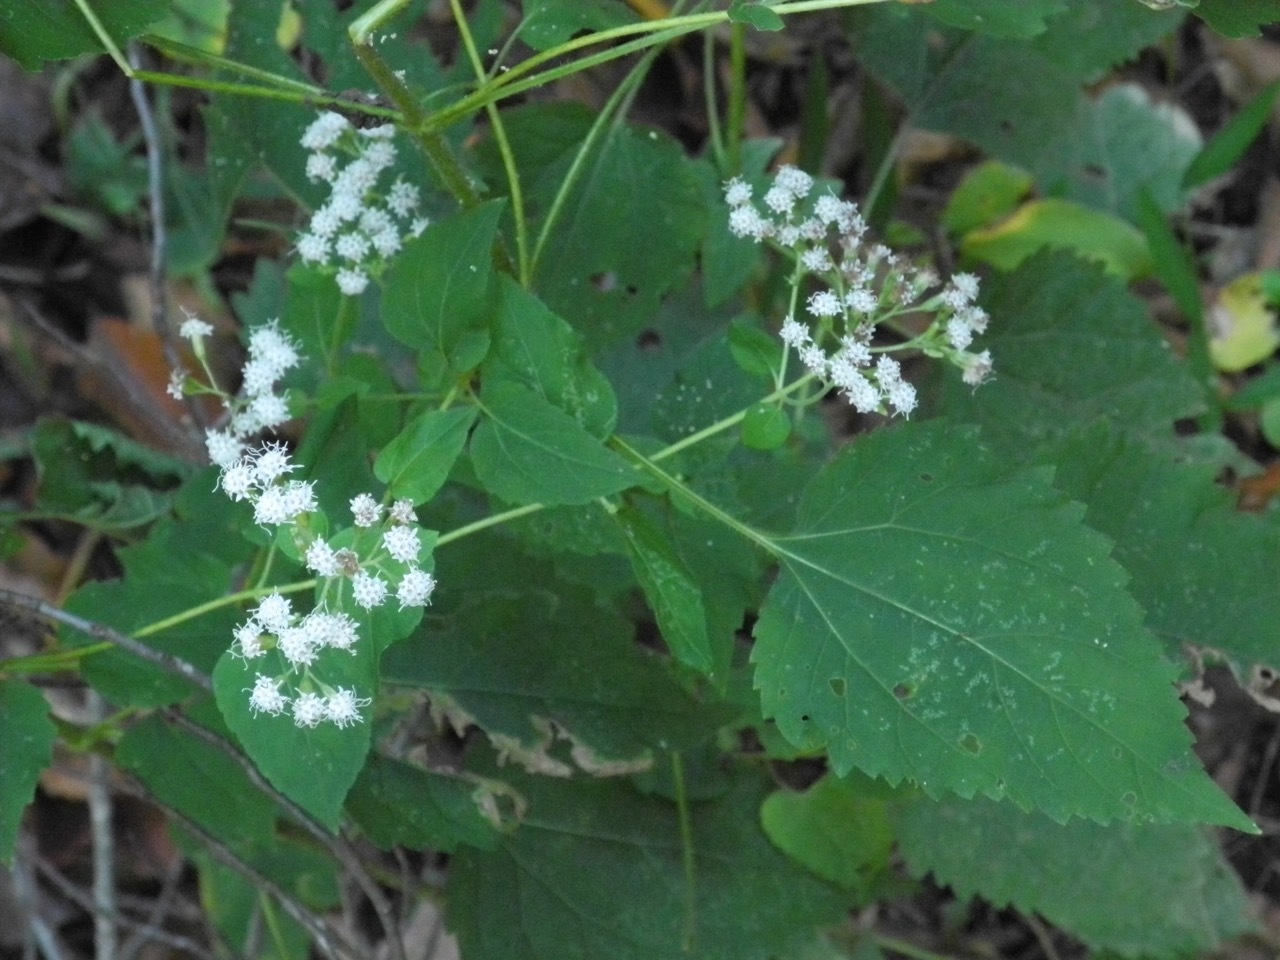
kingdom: Plantae
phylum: Tracheophyta
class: Magnoliopsida
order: Asterales
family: Asteraceae
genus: Ageratina
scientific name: Ageratina altissima
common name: White snakeroot
